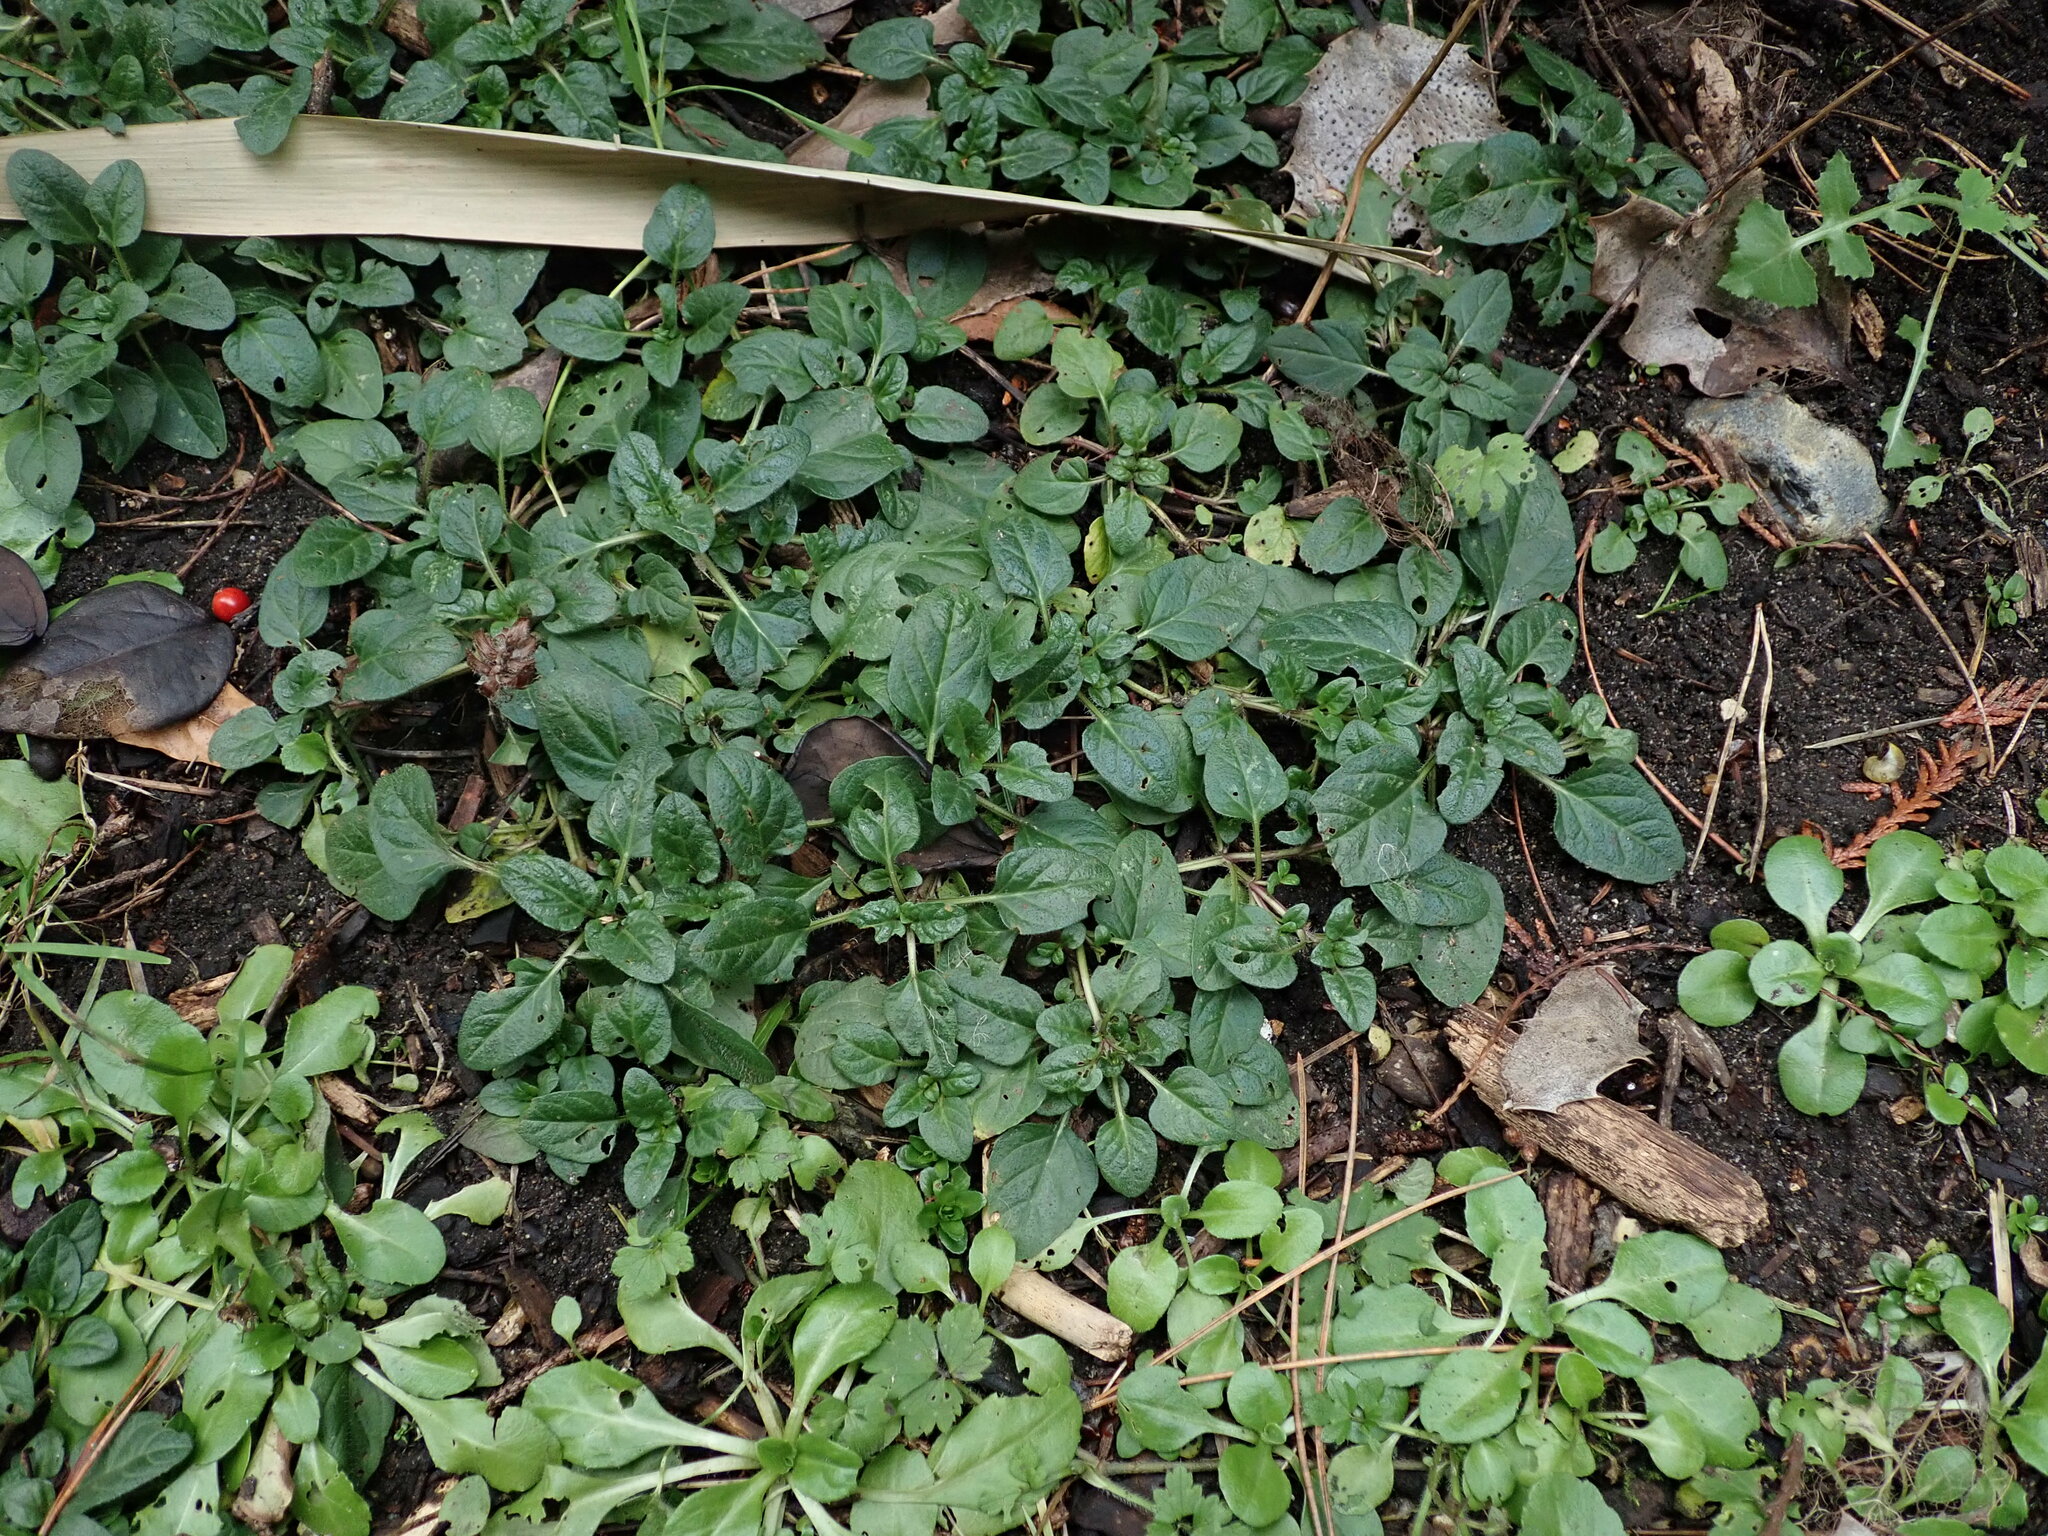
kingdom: Plantae
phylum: Tracheophyta
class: Magnoliopsida
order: Lamiales
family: Lamiaceae
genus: Prunella
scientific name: Prunella vulgaris
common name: Heal-all
